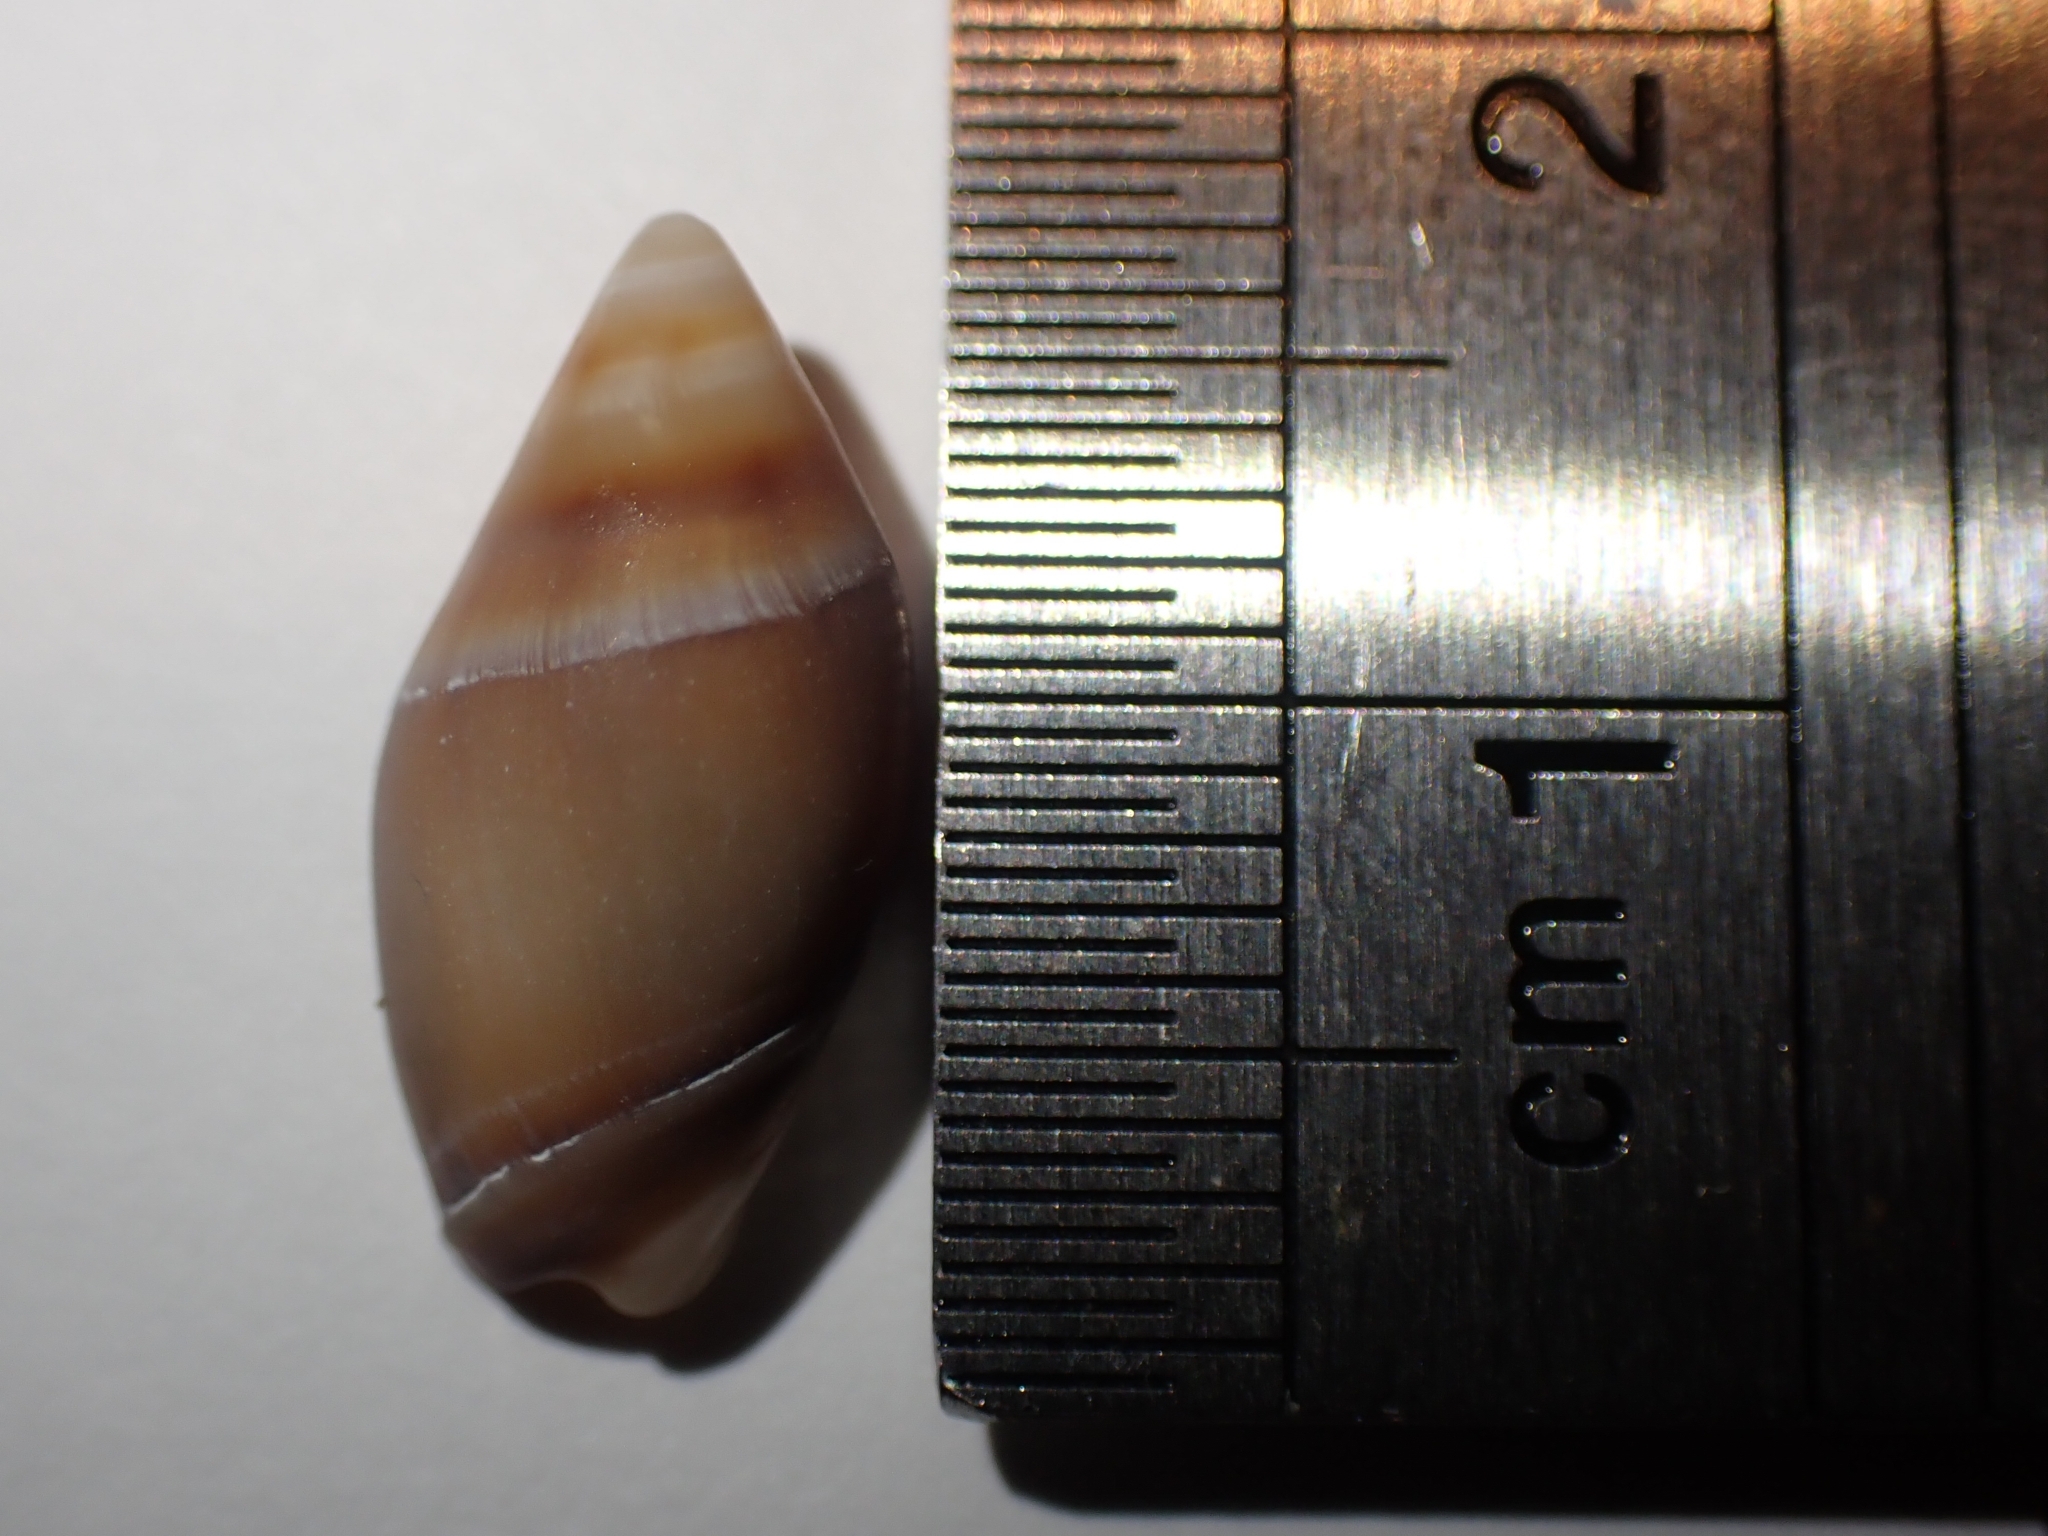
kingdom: Animalia
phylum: Mollusca
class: Gastropoda
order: Neogastropoda
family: Ancillariidae
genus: Amalda
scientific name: Amalda australis
